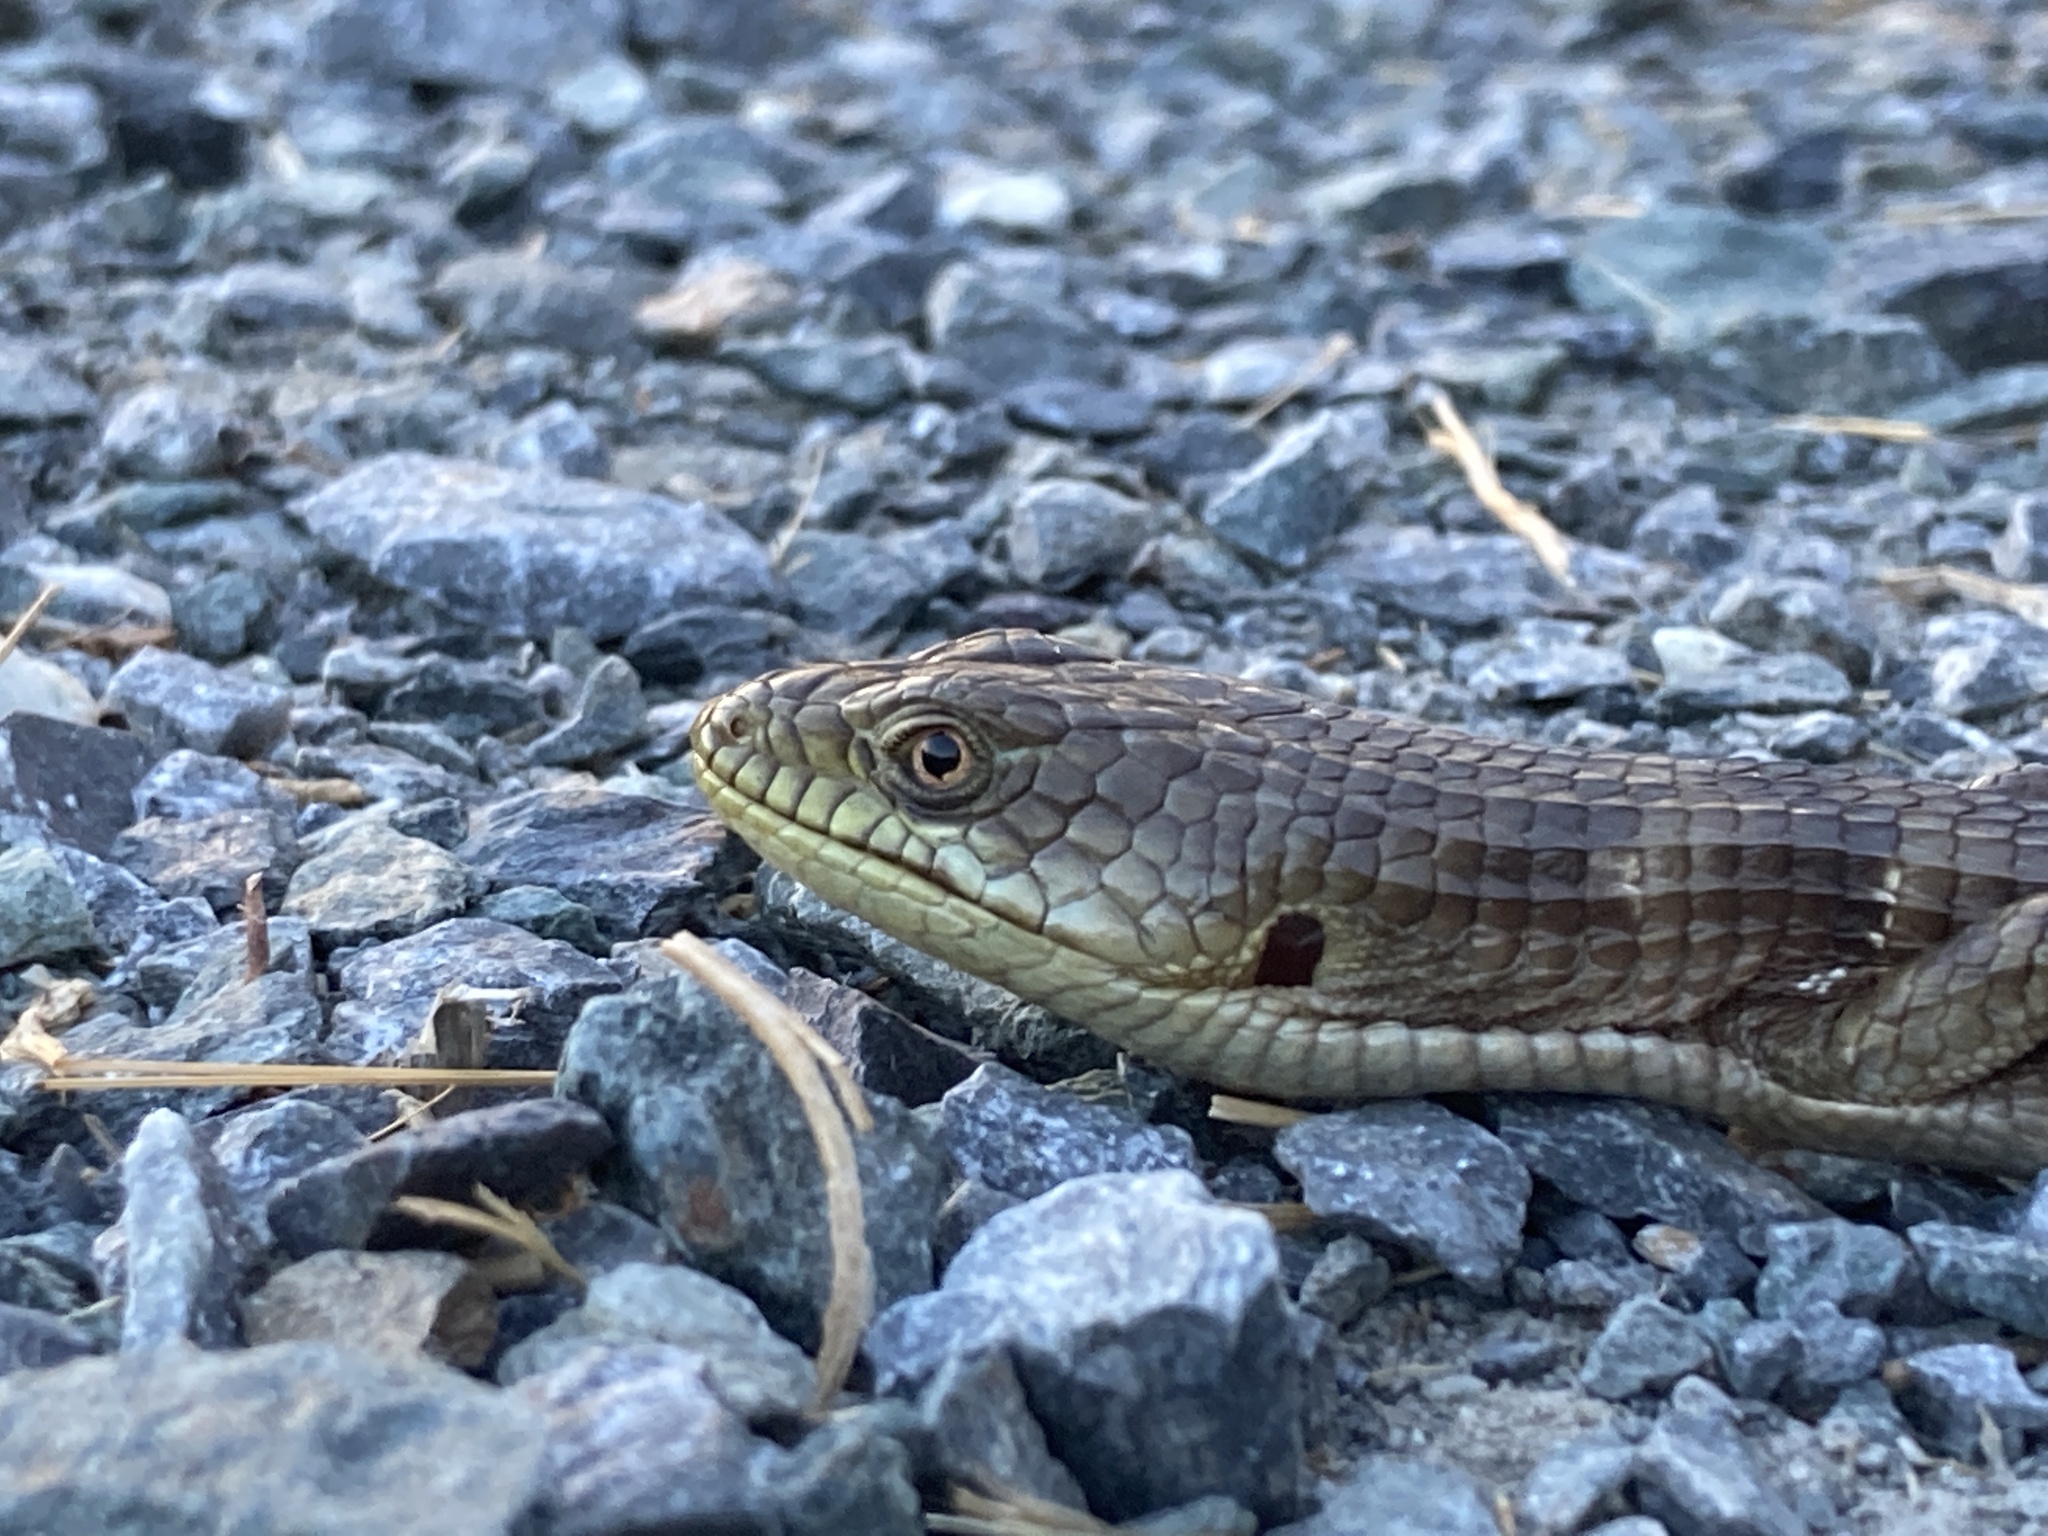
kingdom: Animalia
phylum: Chordata
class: Squamata
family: Anguidae
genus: Elgaria
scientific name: Elgaria multicarinata
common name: Southern alligator lizard
